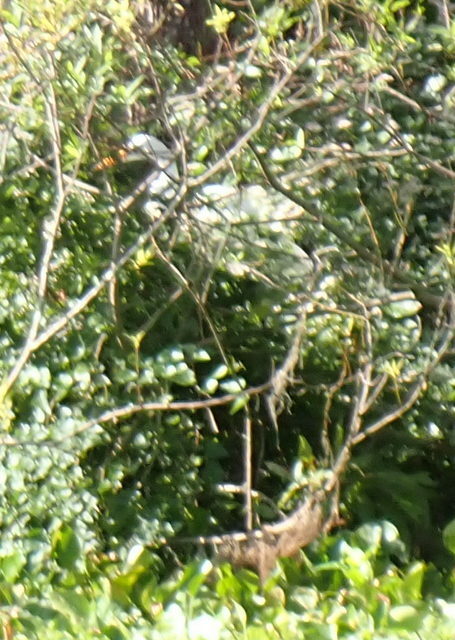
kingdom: Animalia
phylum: Chordata
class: Aves
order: Pelecaniformes
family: Ardeidae
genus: Ardea
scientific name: Ardea alba
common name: Great egret
